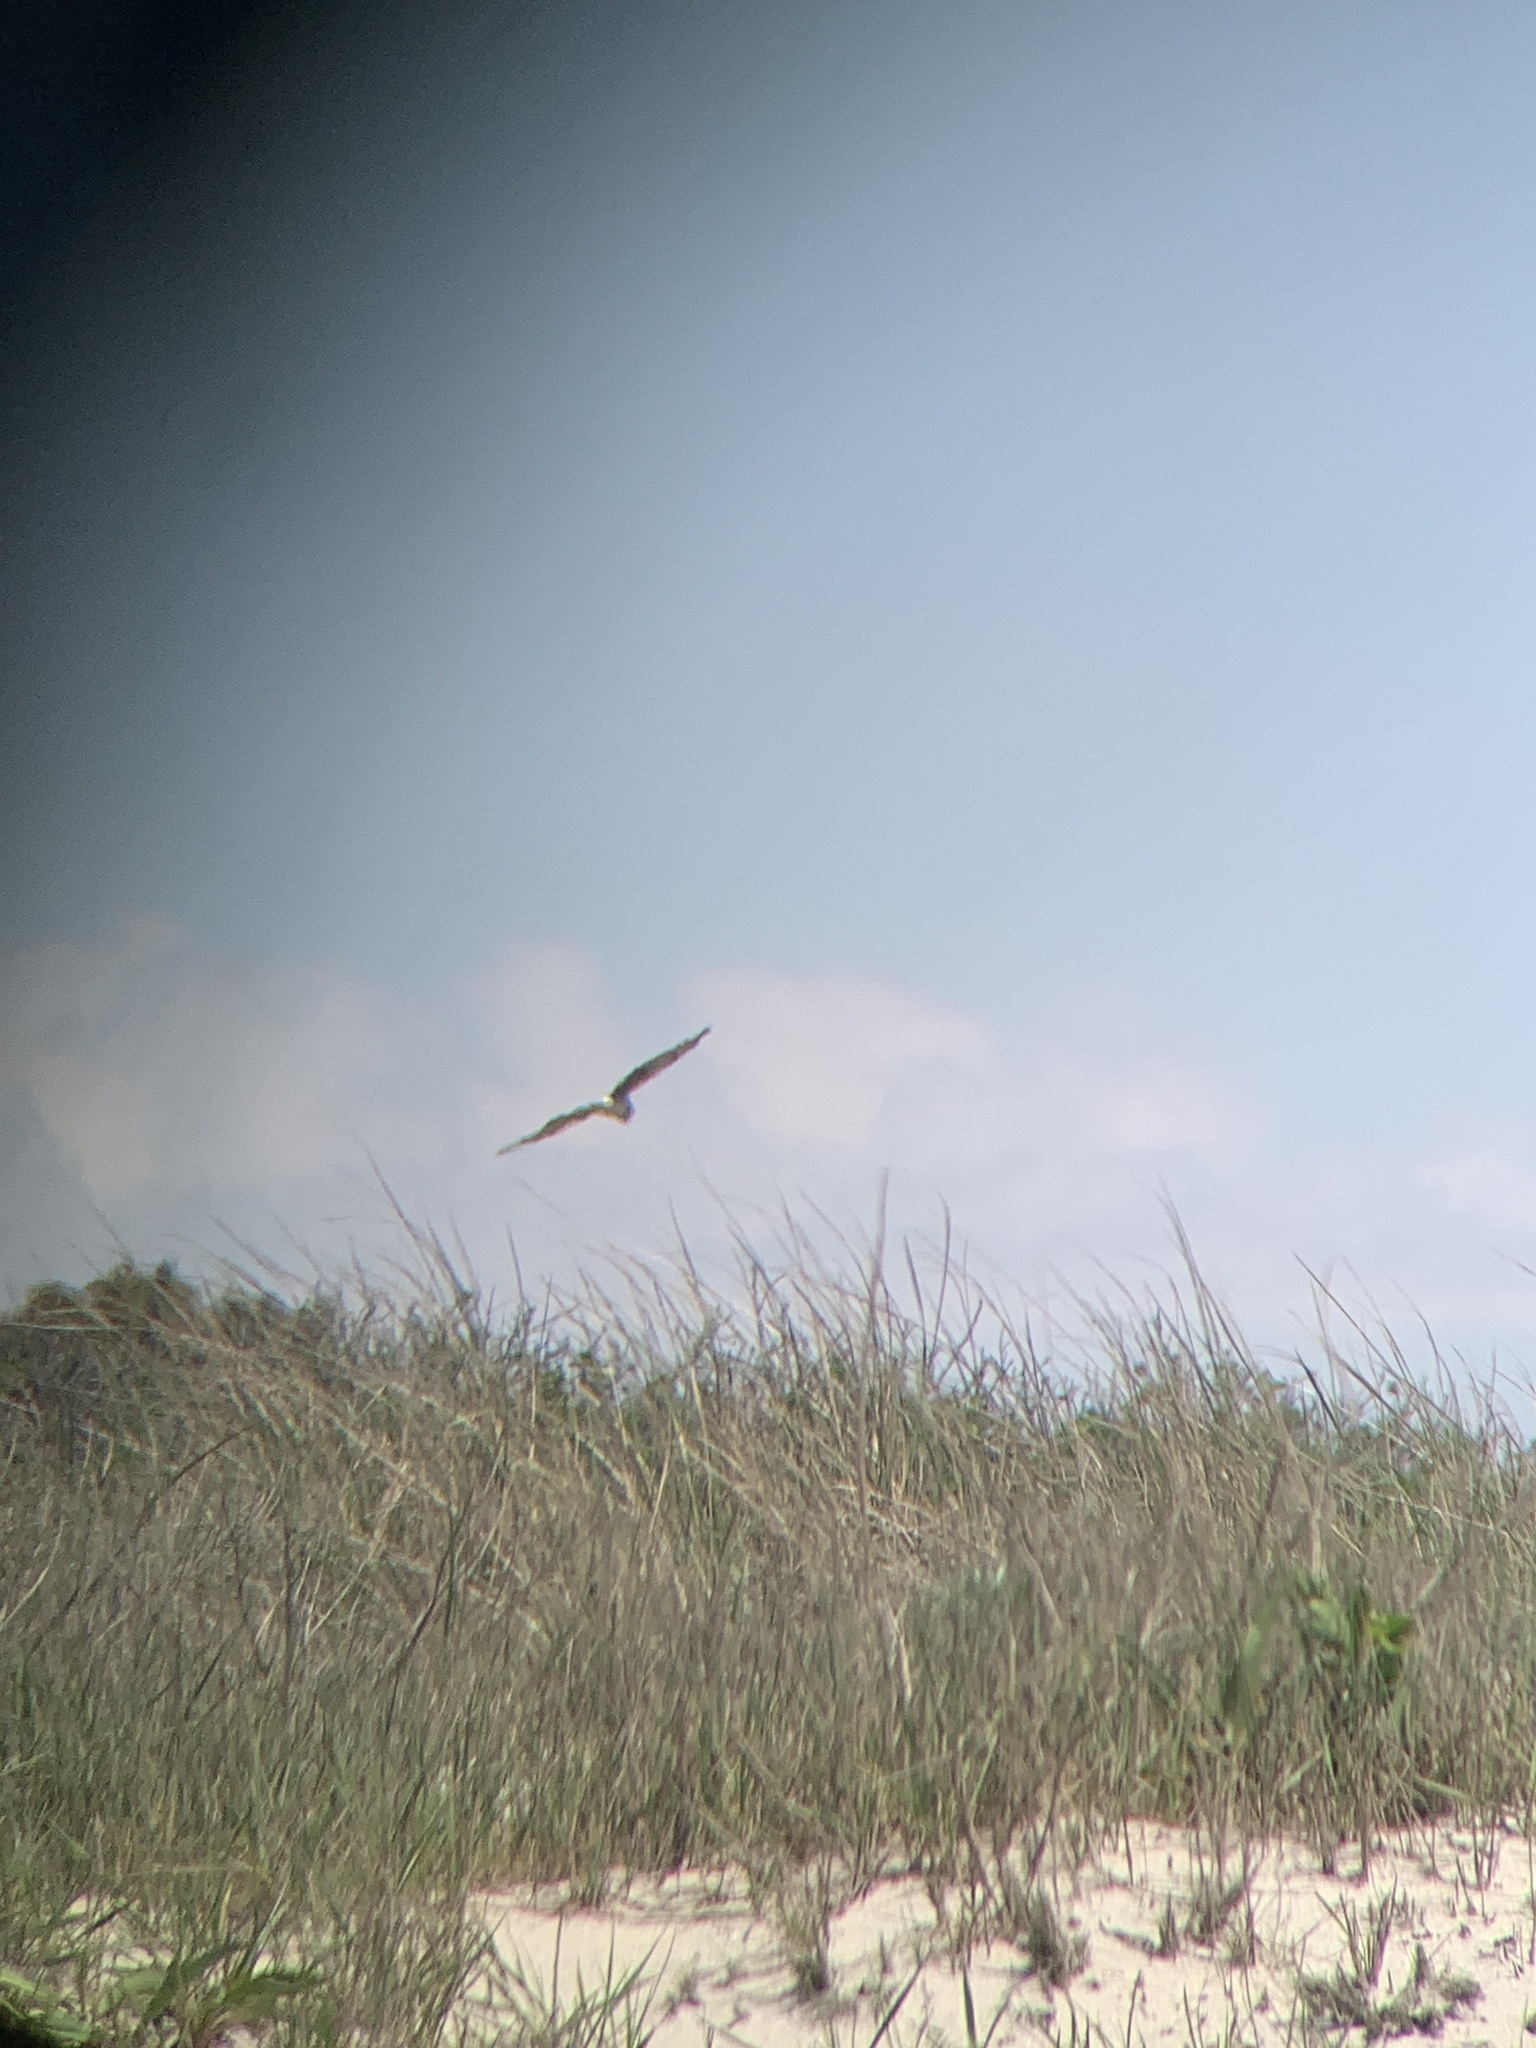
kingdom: Animalia
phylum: Chordata
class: Aves
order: Accipitriformes
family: Accipitridae
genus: Circus
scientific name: Circus cyaneus
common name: Hen harrier
